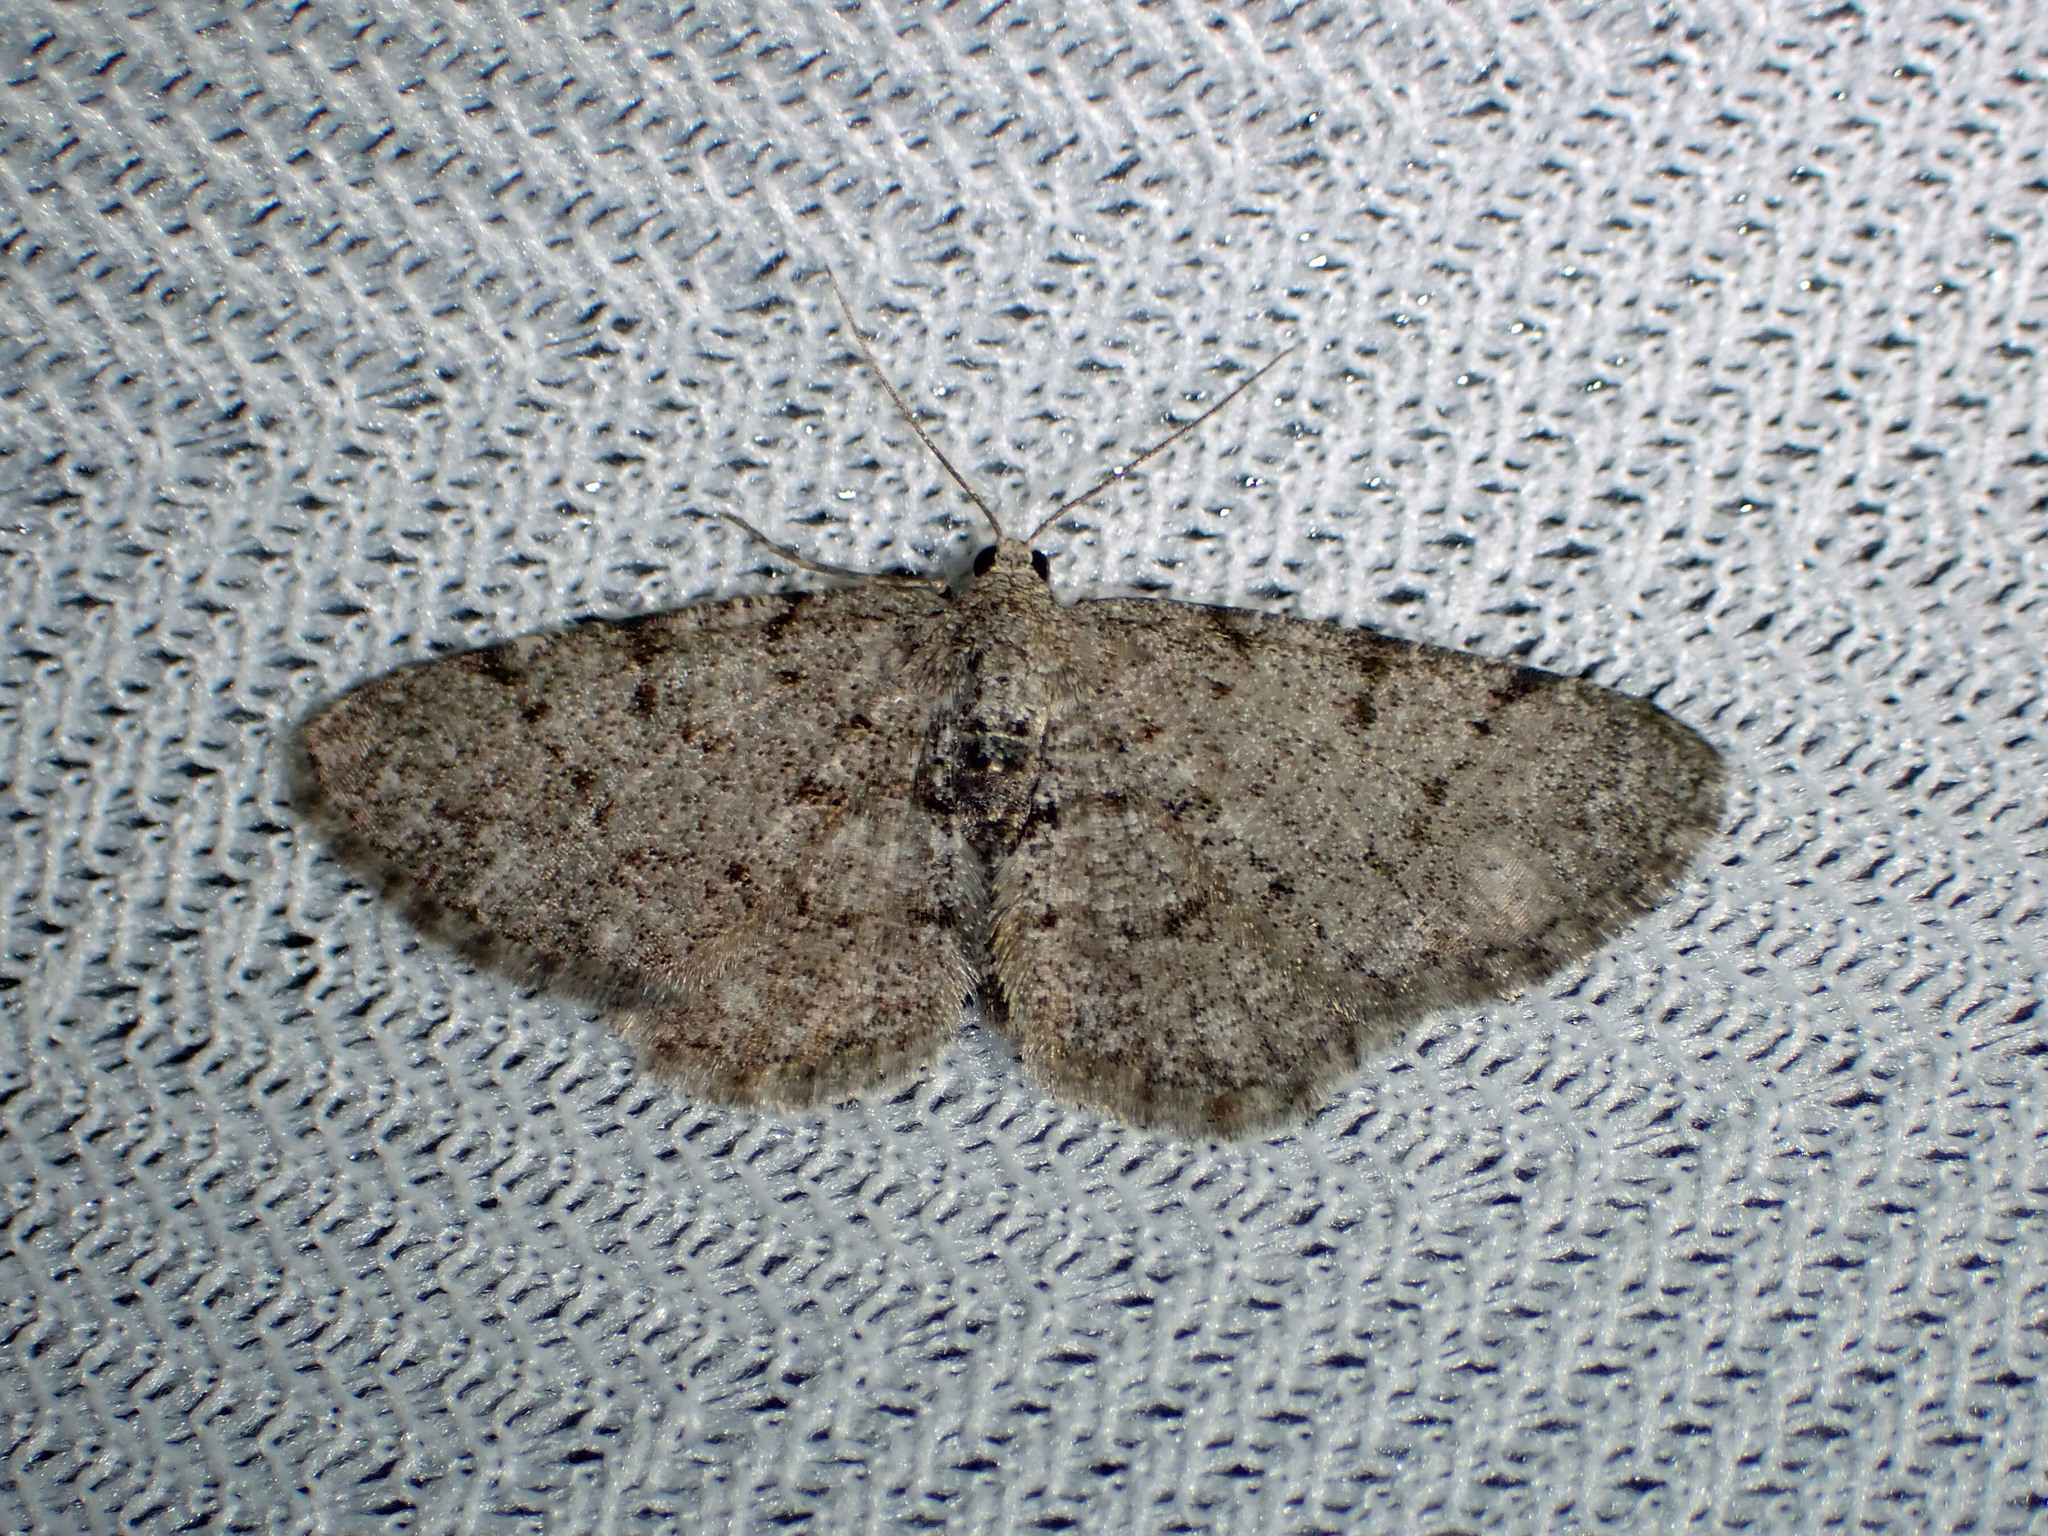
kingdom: Animalia
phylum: Arthropoda
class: Insecta
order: Lepidoptera
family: Geometridae
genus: Aethalura
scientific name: Aethalura intertexta
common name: Four-barred gray
